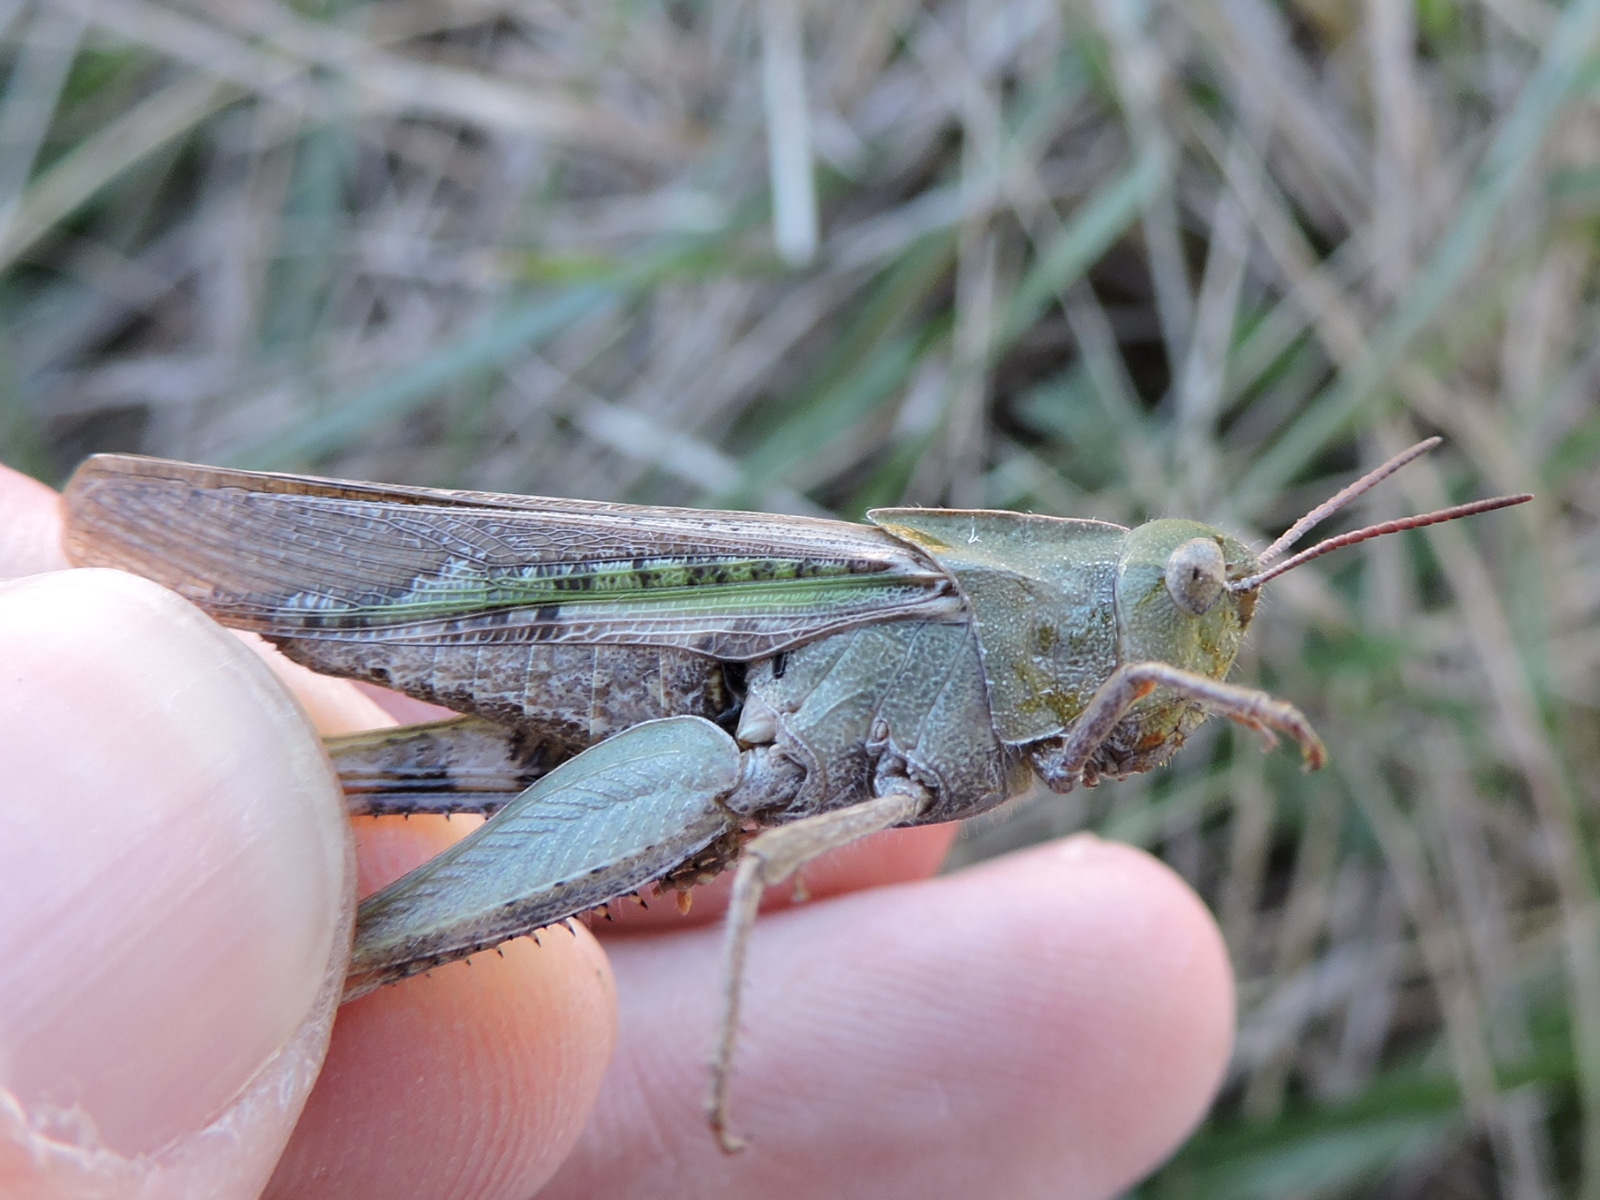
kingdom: Animalia
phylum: Arthropoda
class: Insecta
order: Orthoptera
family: Acrididae
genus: Chortophaga
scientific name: Chortophaga viridifasciata
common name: Green-striped grasshopper
